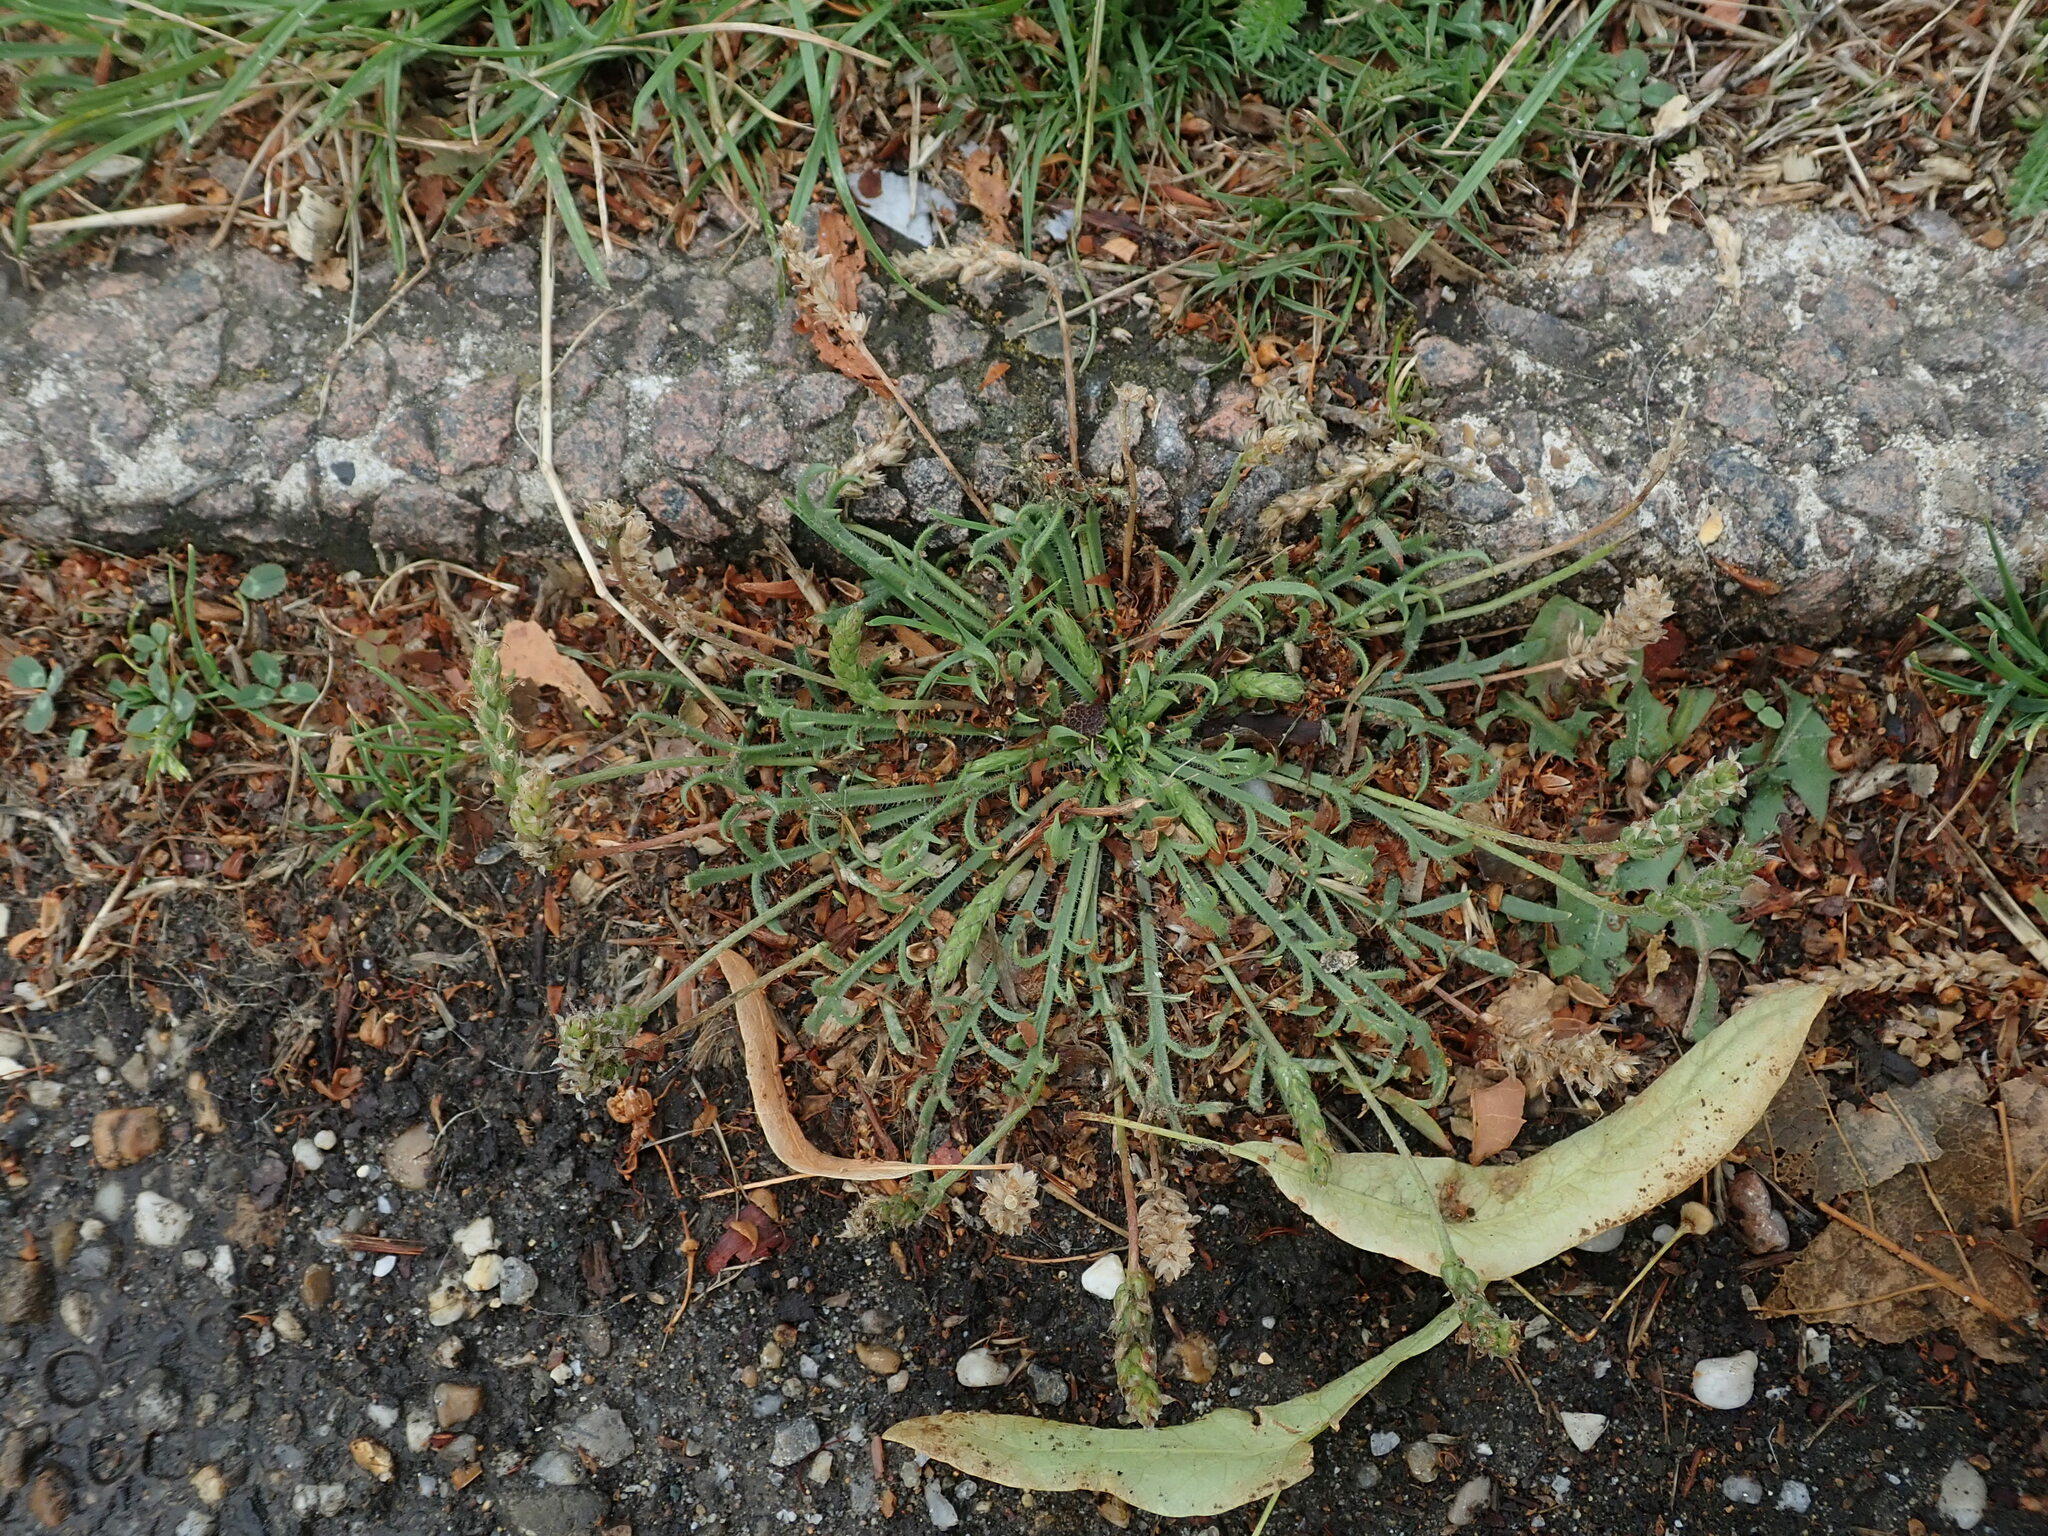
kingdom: Plantae
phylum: Tracheophyta
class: Magnoliopsida
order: Lamiales
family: Plantaginaceae
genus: Plantago
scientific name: Plantago coronopus
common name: Buck's-horn plantain
